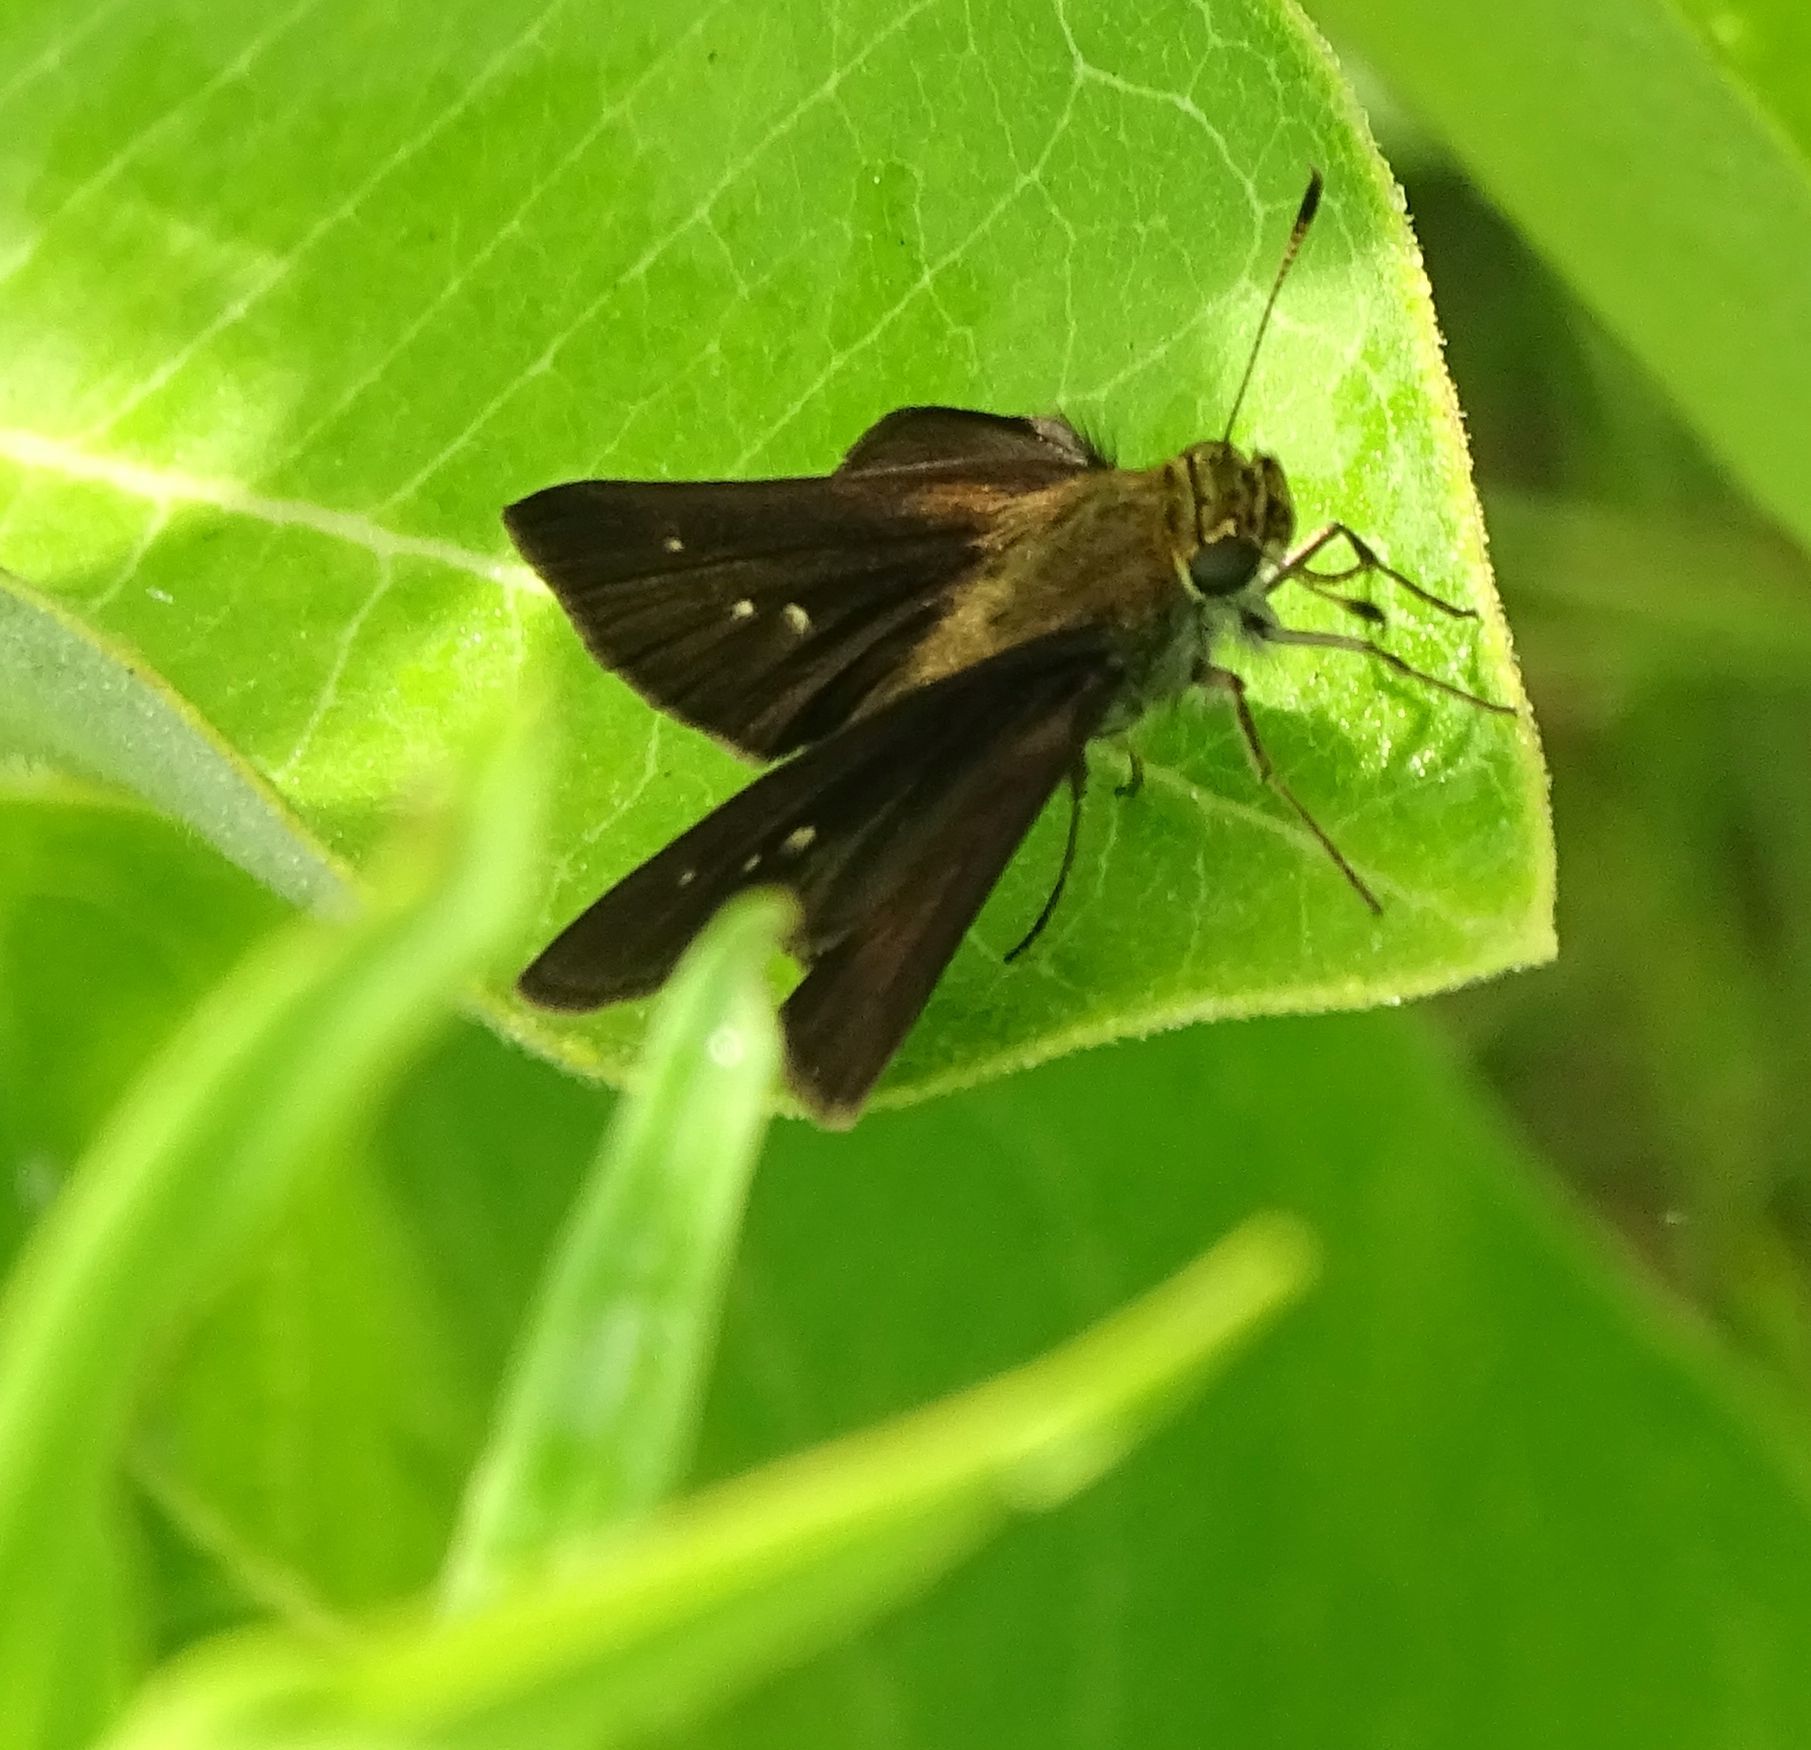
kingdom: Animalia
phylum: Arthropoda
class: Insecta
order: Lepidoptera
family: Hesperiidae
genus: Euphyes
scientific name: Euphyes vestris
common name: Dun skipper
